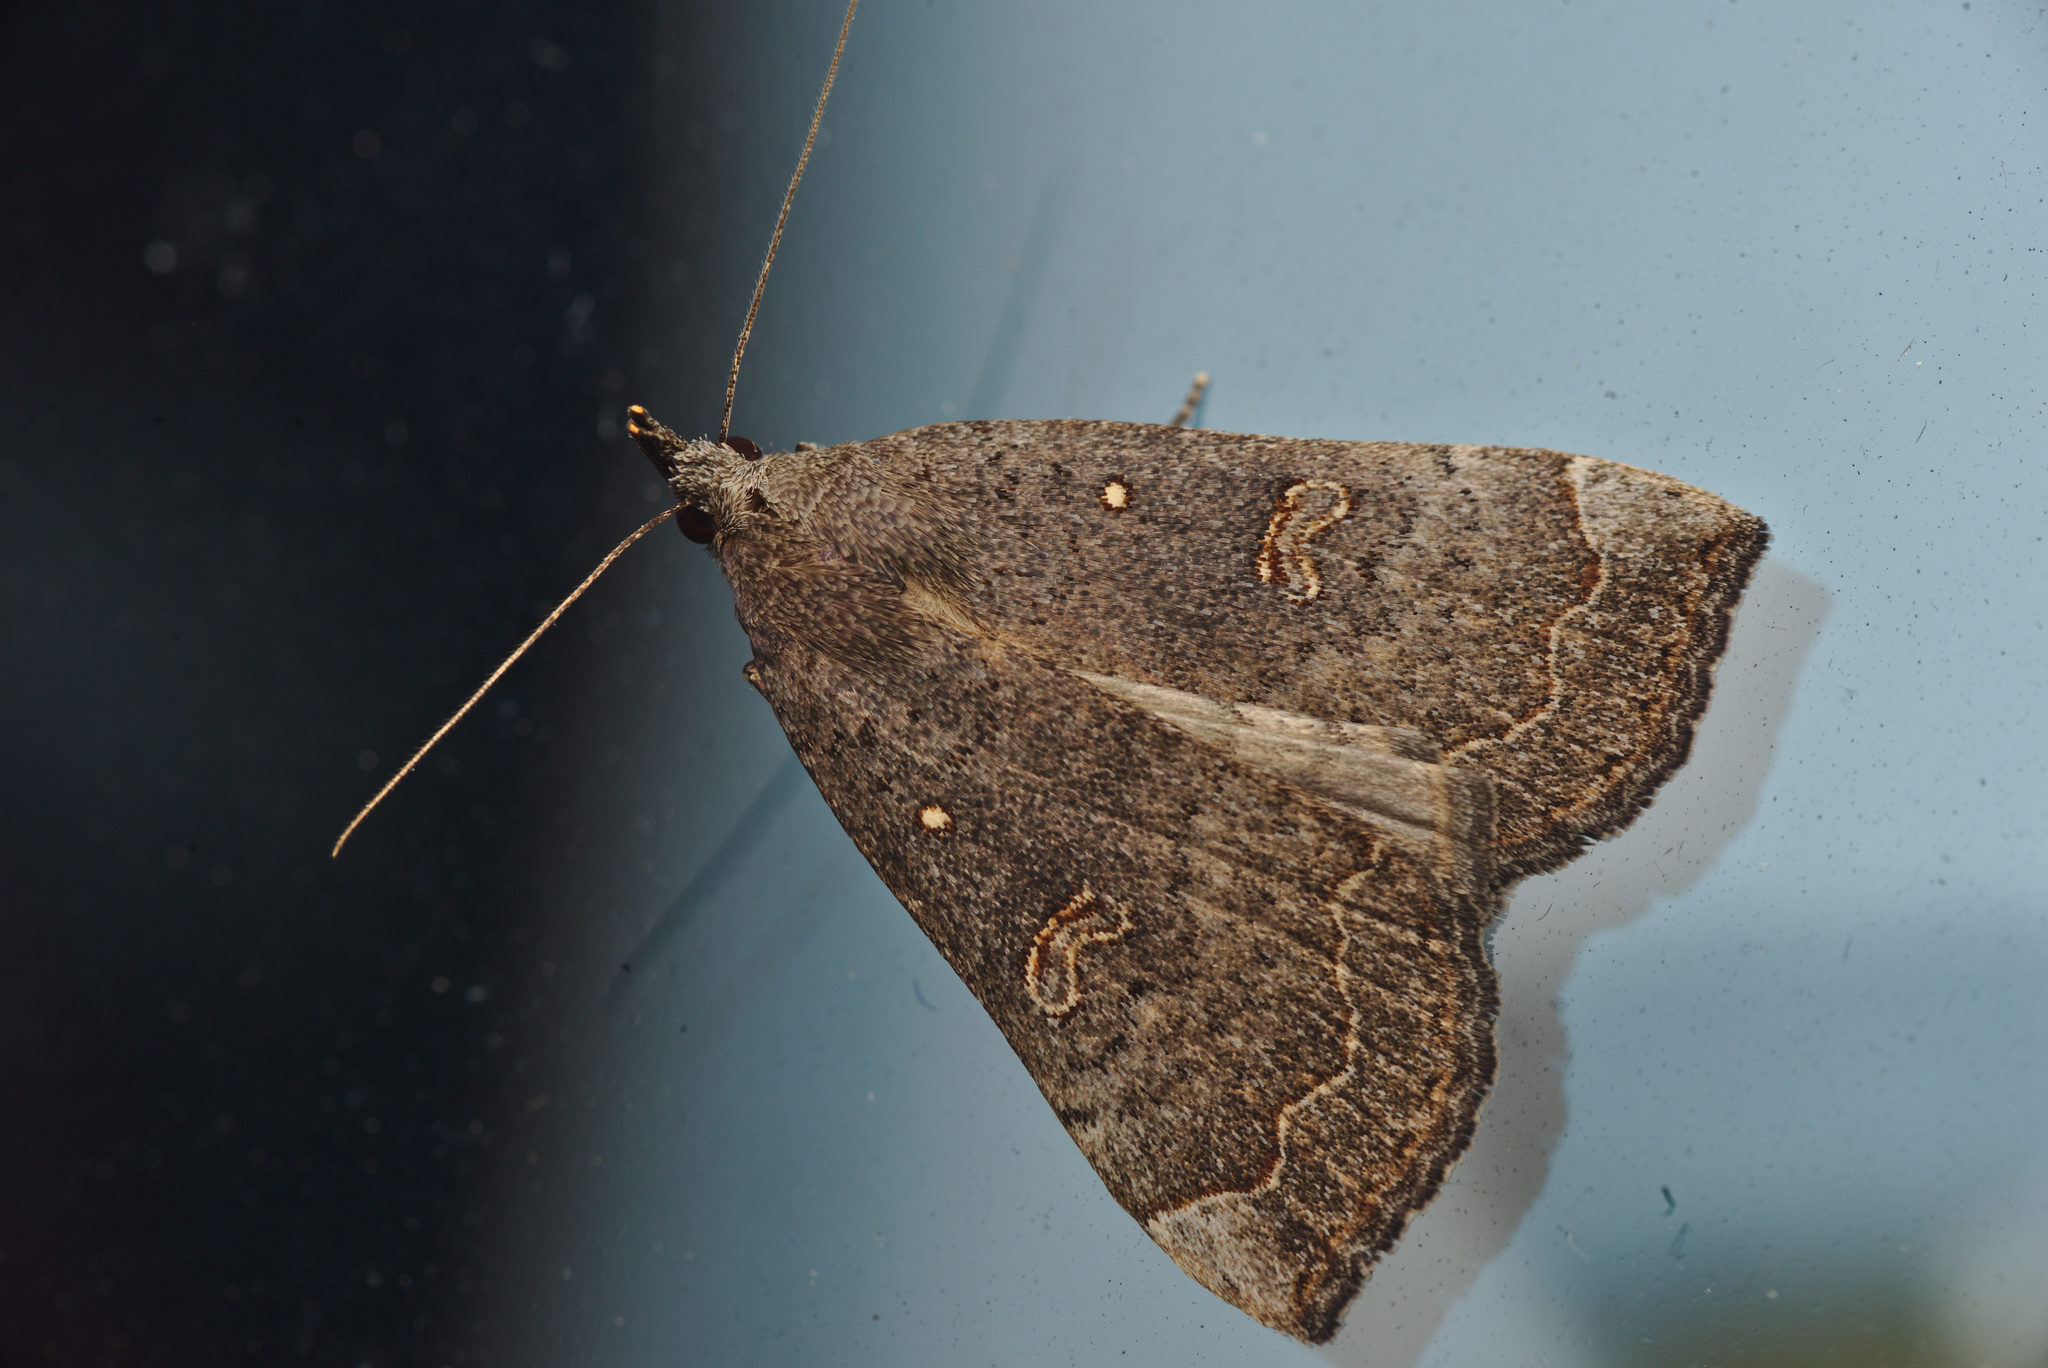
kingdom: Animalia
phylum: Arthropoda
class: Insecta
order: Lepidoptera
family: Erebidae
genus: Rhapsa
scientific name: Rhapsa scotosialis
